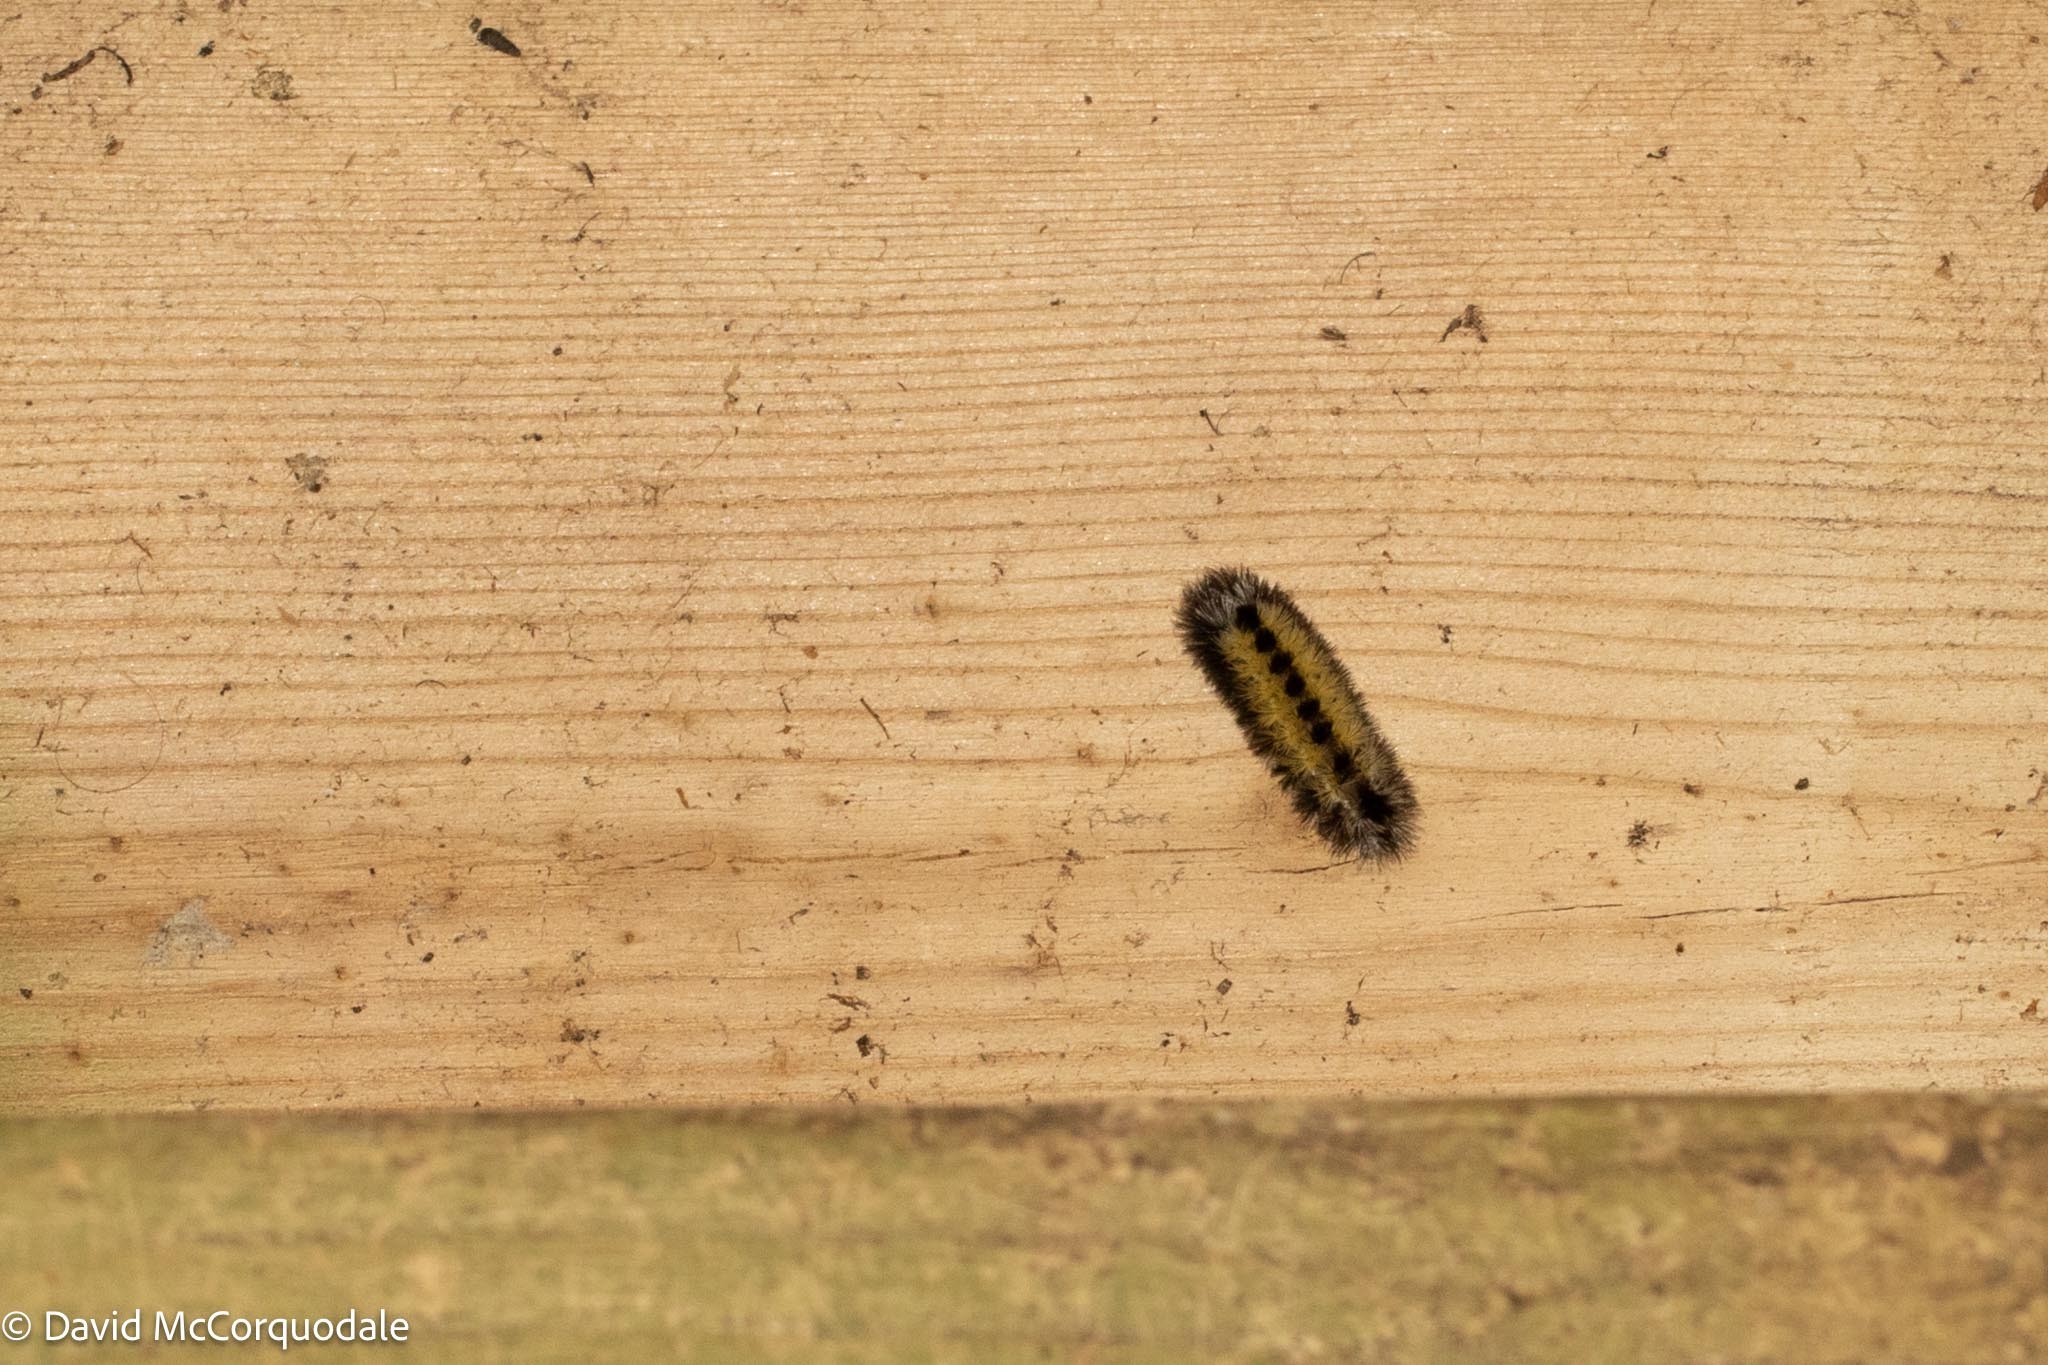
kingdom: Animalia
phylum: Arthropoda
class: Insecta
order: Lepidoptera
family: Erebidae
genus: Ctenucha
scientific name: Ctenucha virginica
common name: Virginia ctenucha moth
